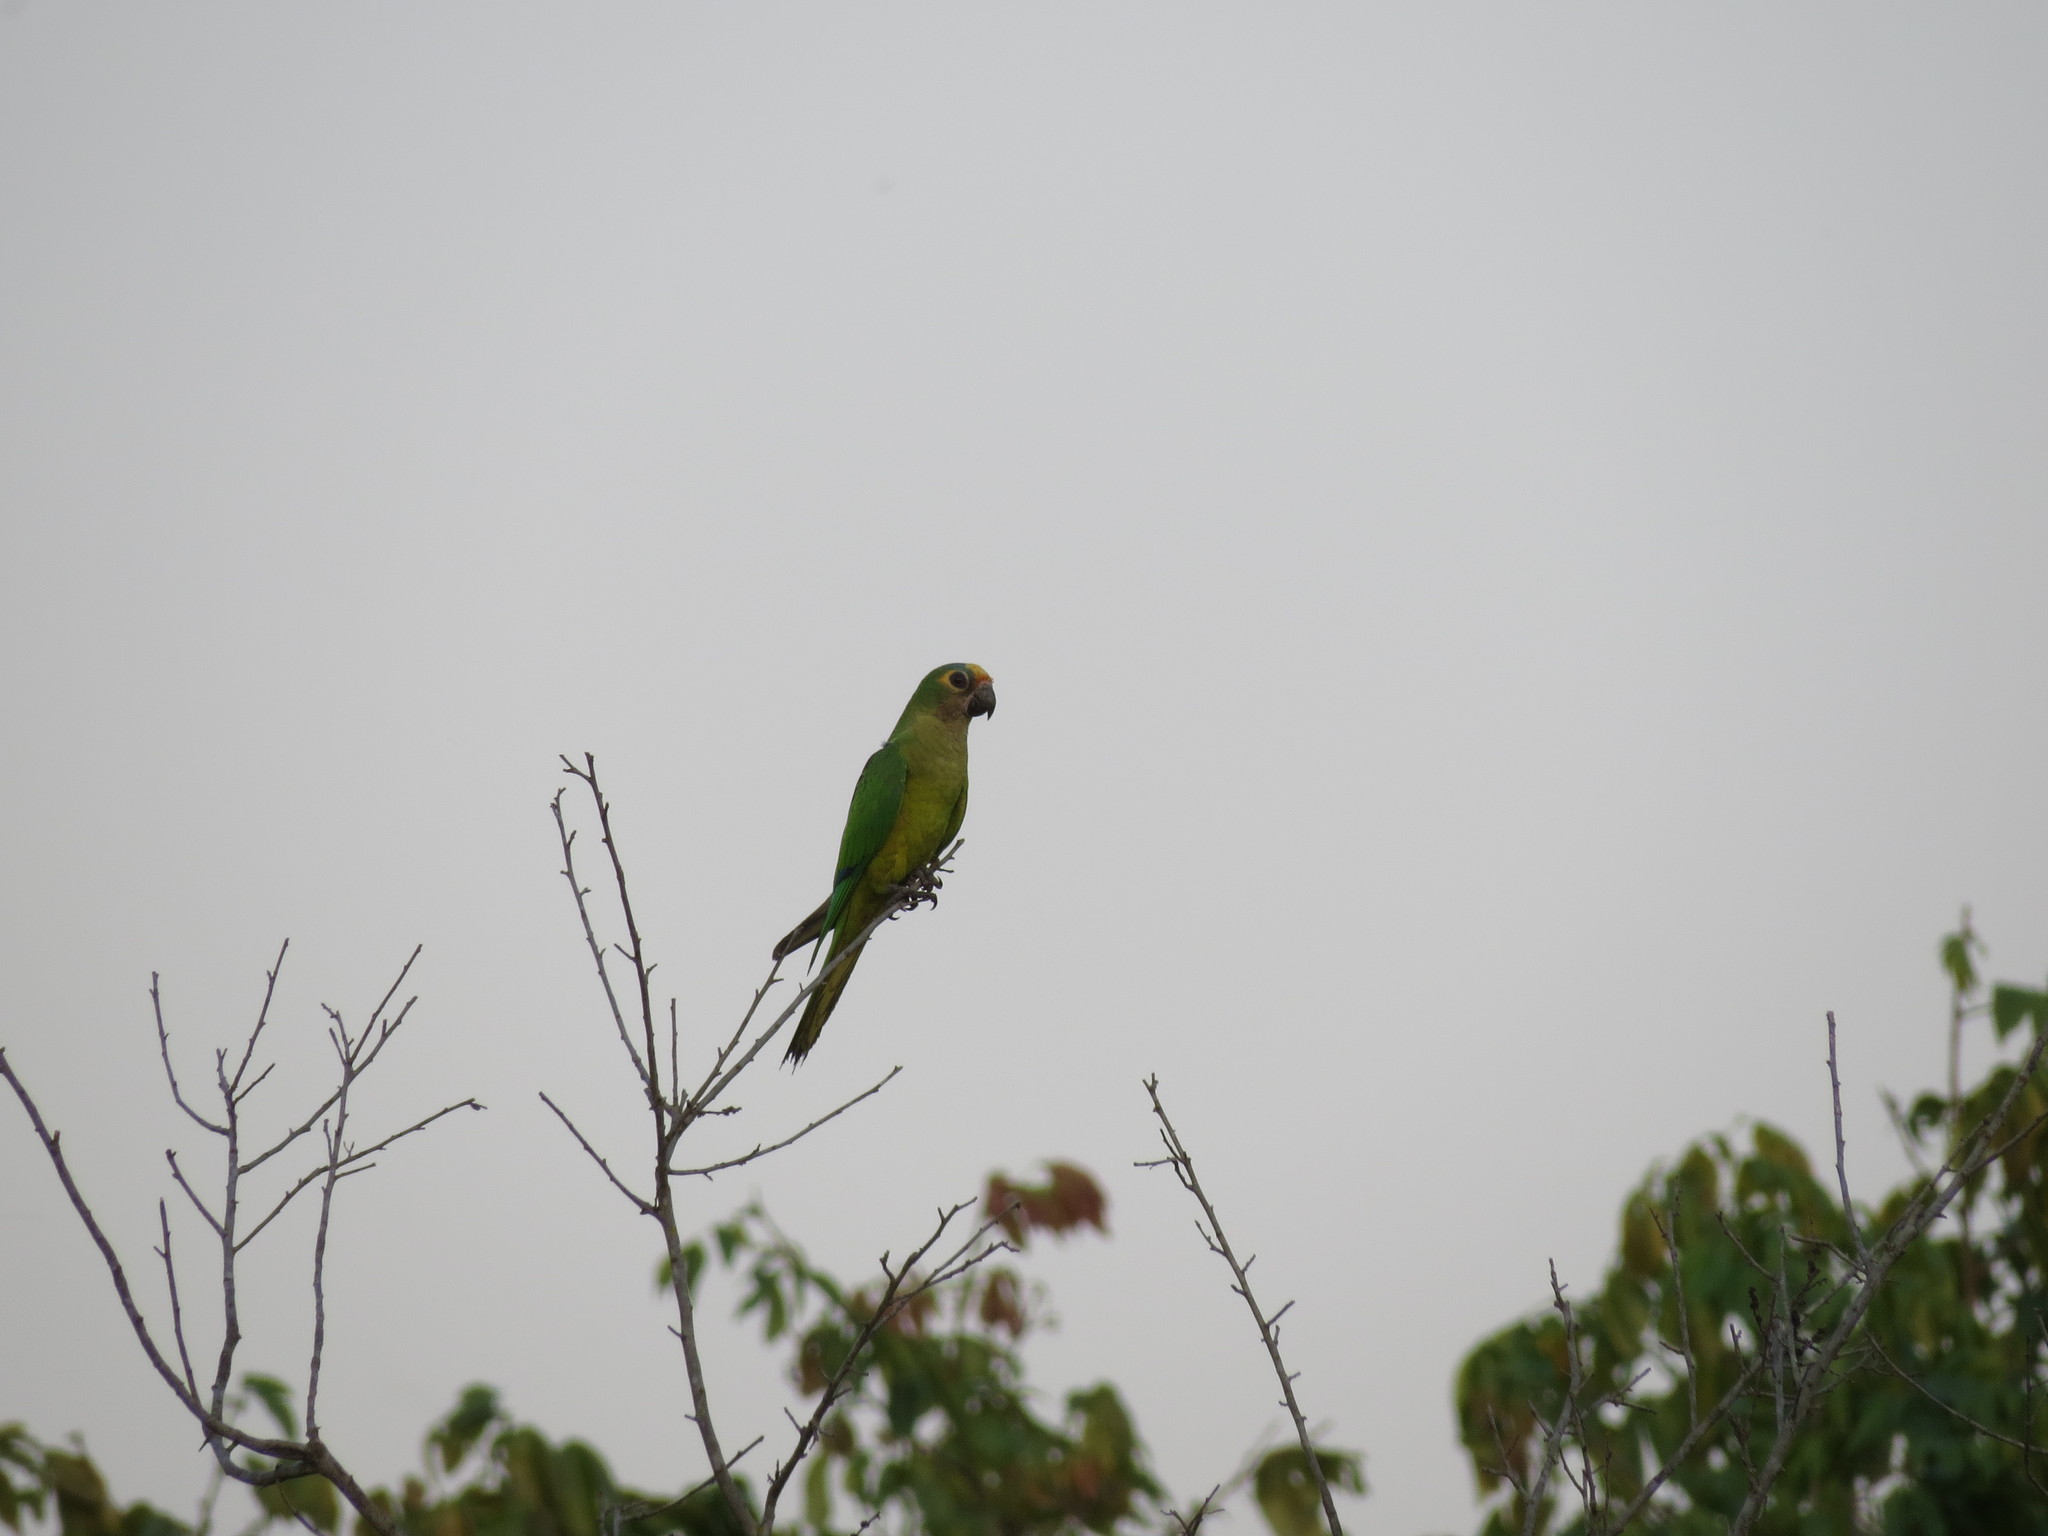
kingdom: Animalia
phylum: Chordata
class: Aves
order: Psittaciformes
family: Psittacidae
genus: Aratinga
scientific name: Aratinga aurea
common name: Peach-fronted parakeet
